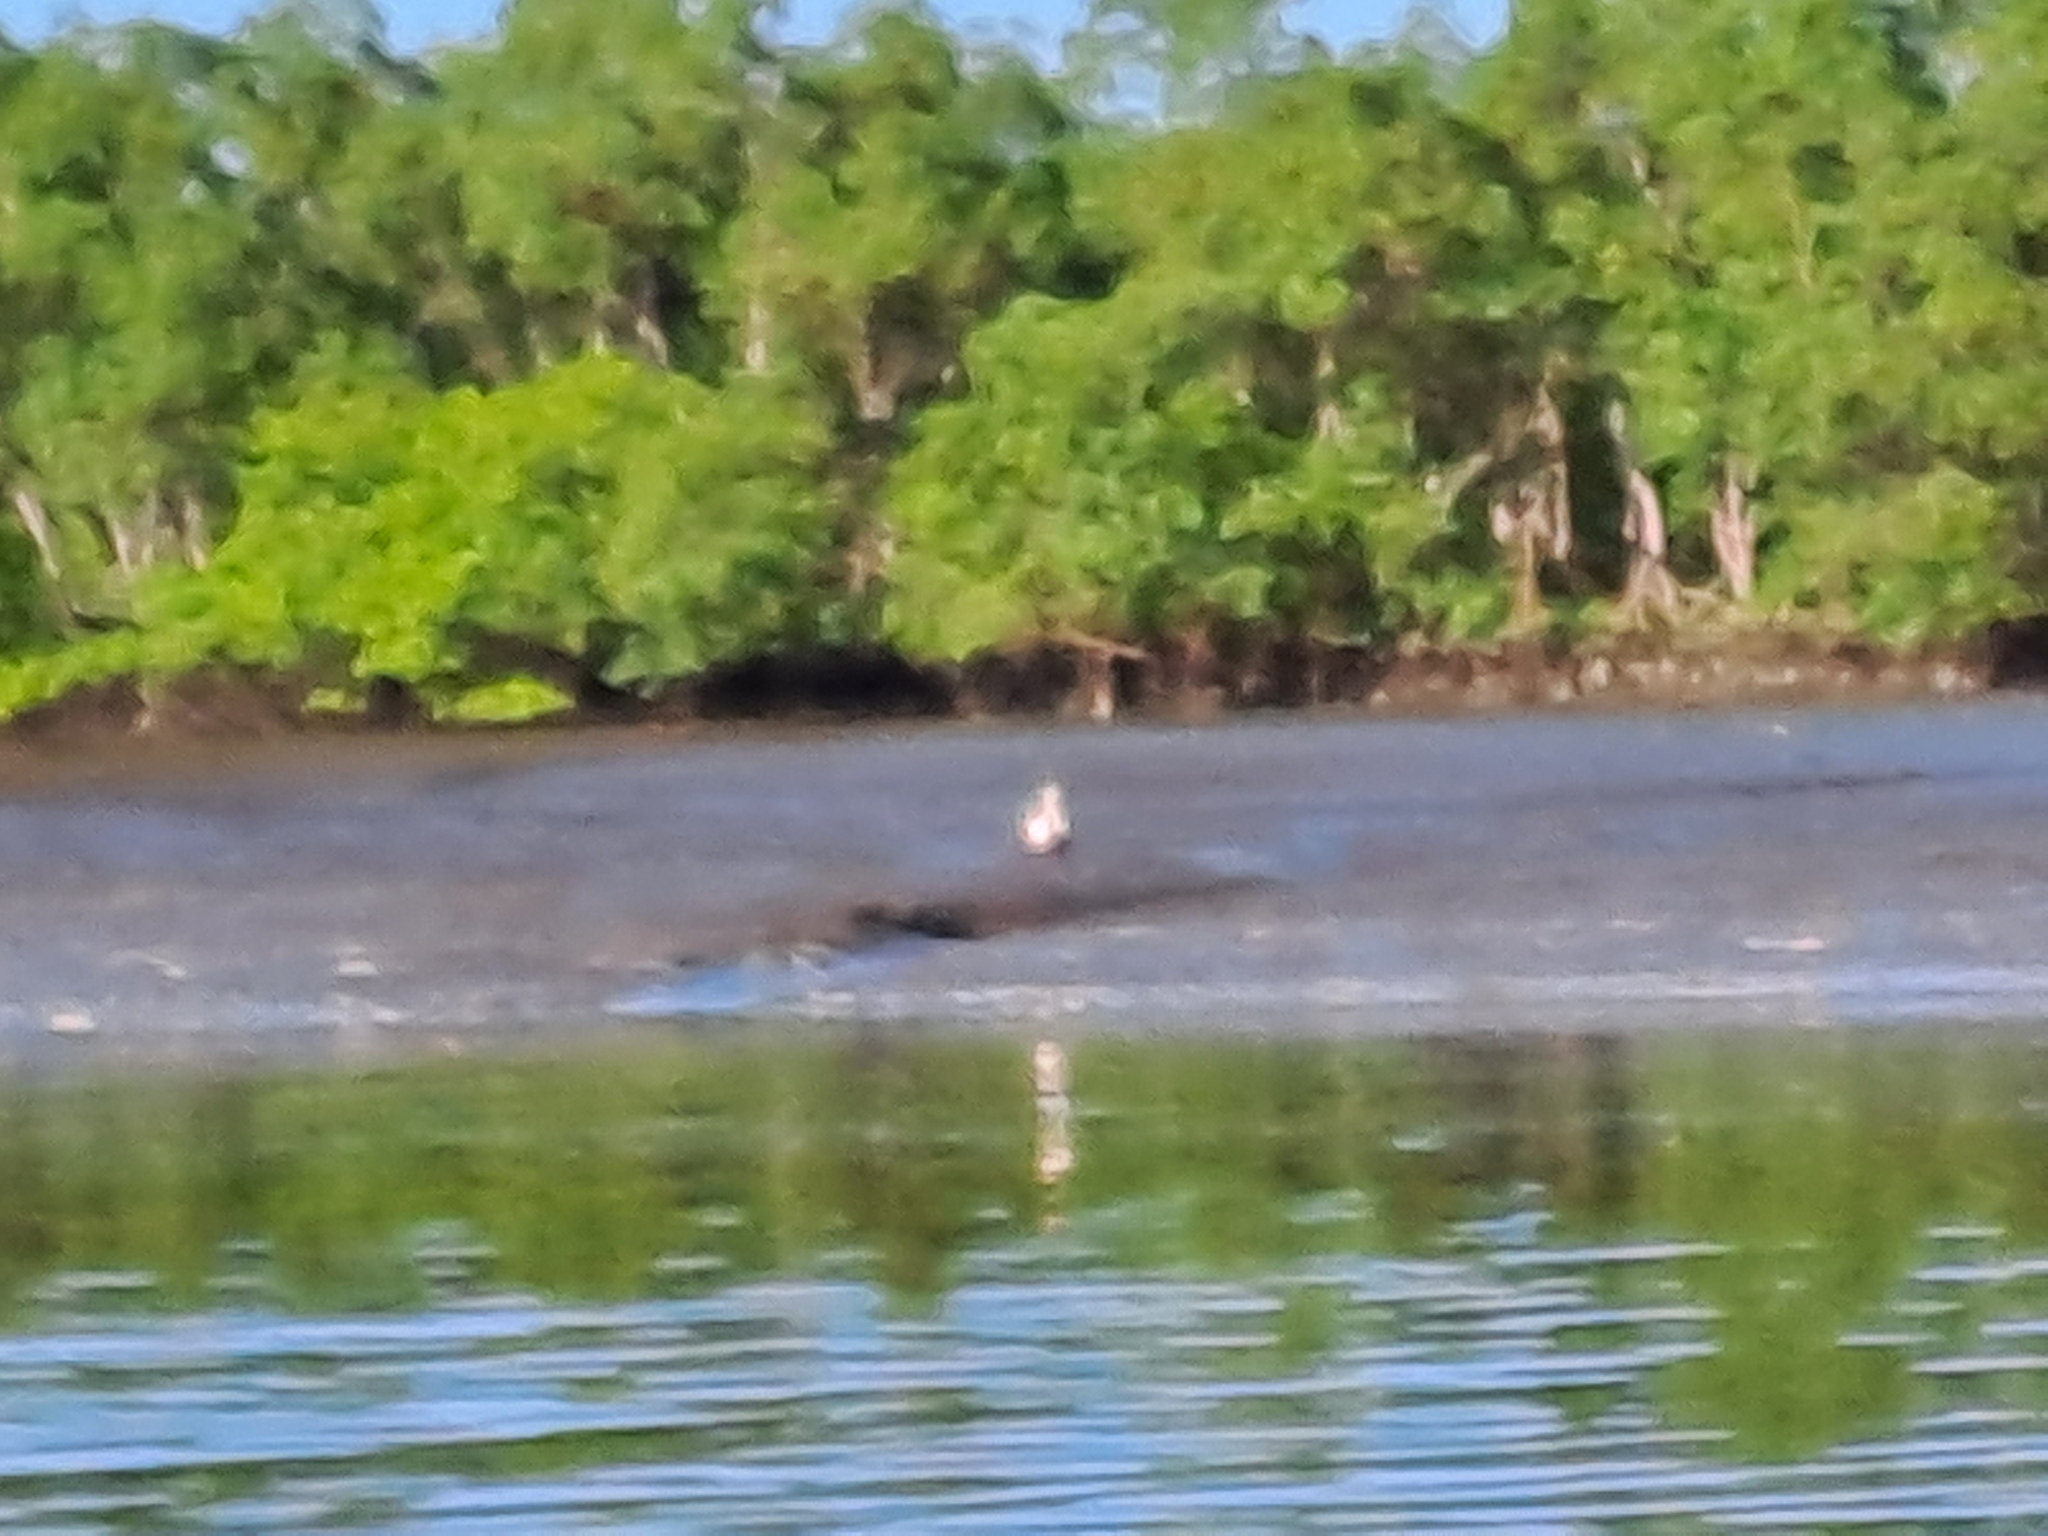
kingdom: Animalia
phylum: Chordata
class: Aves
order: Pelecaniformes
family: Threskiornithidae
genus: Platalea
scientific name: Platalea ajaja
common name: Roseate spoonbill
